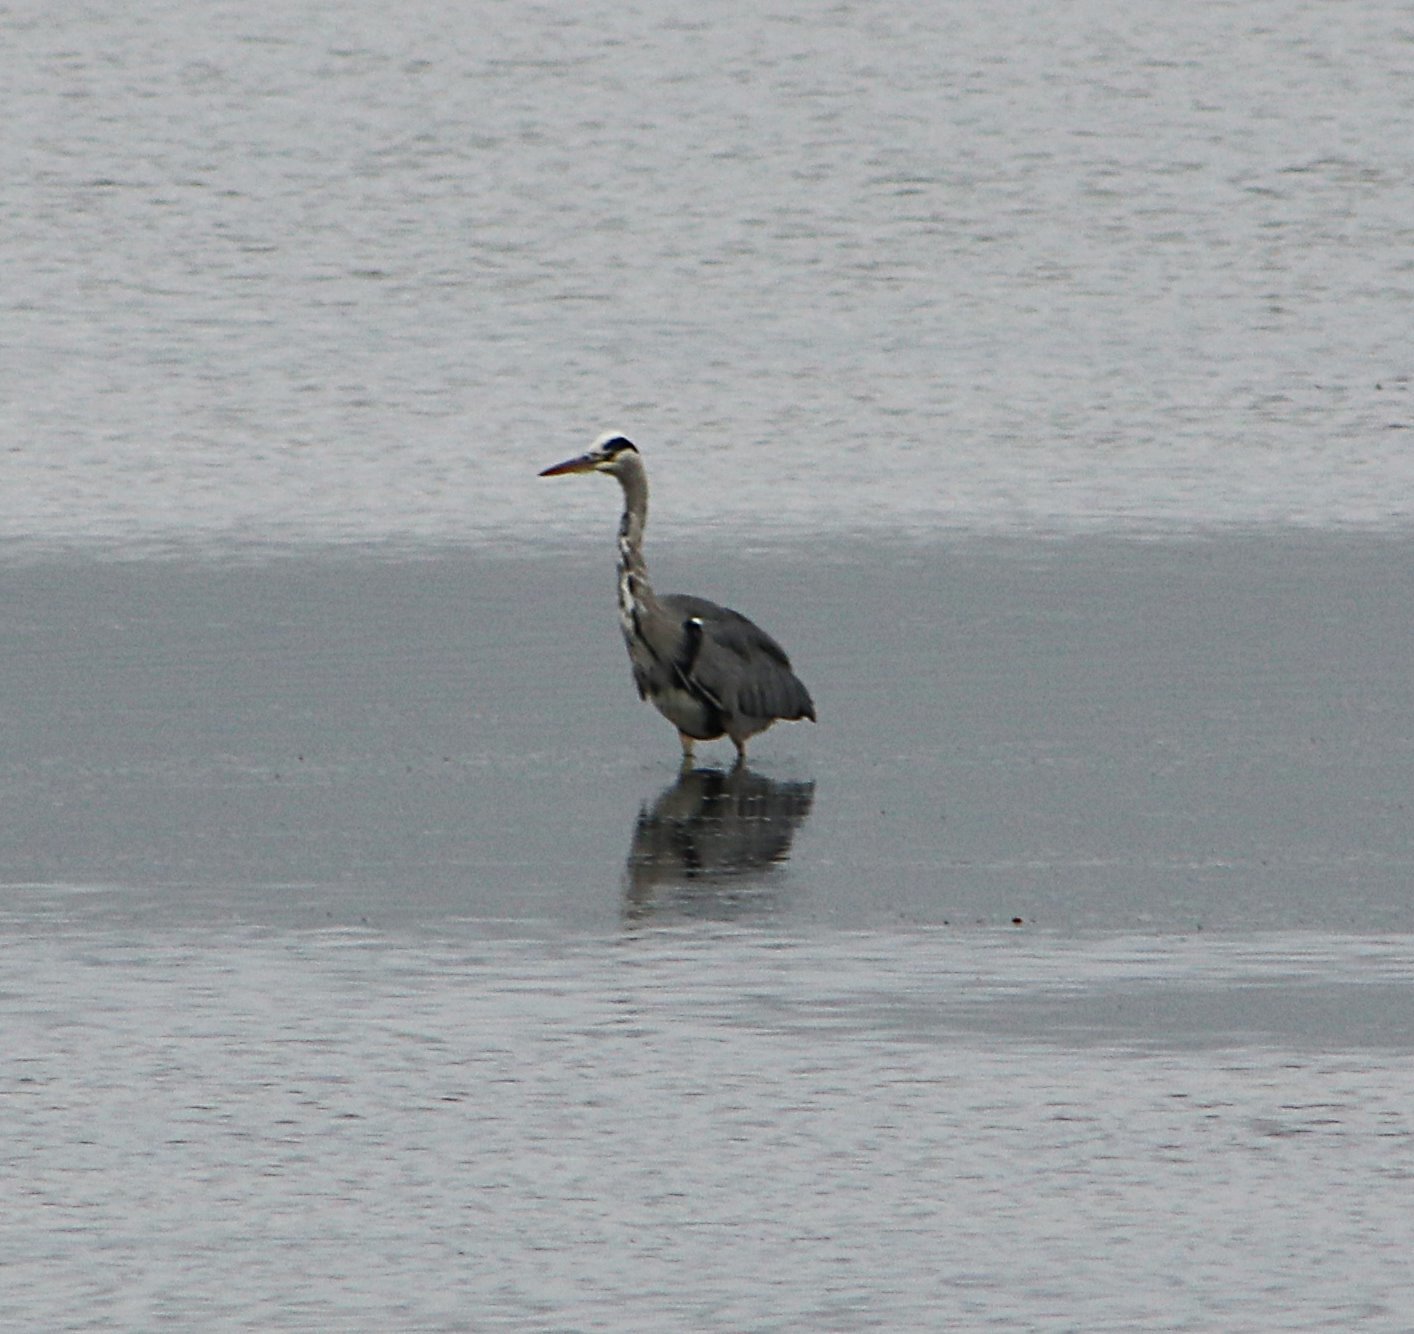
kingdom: Animalia
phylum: Chordata
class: Aves
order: Pelecaniformes
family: Ardeidae
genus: Ardea
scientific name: Ardea cinerea
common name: Grey heron
